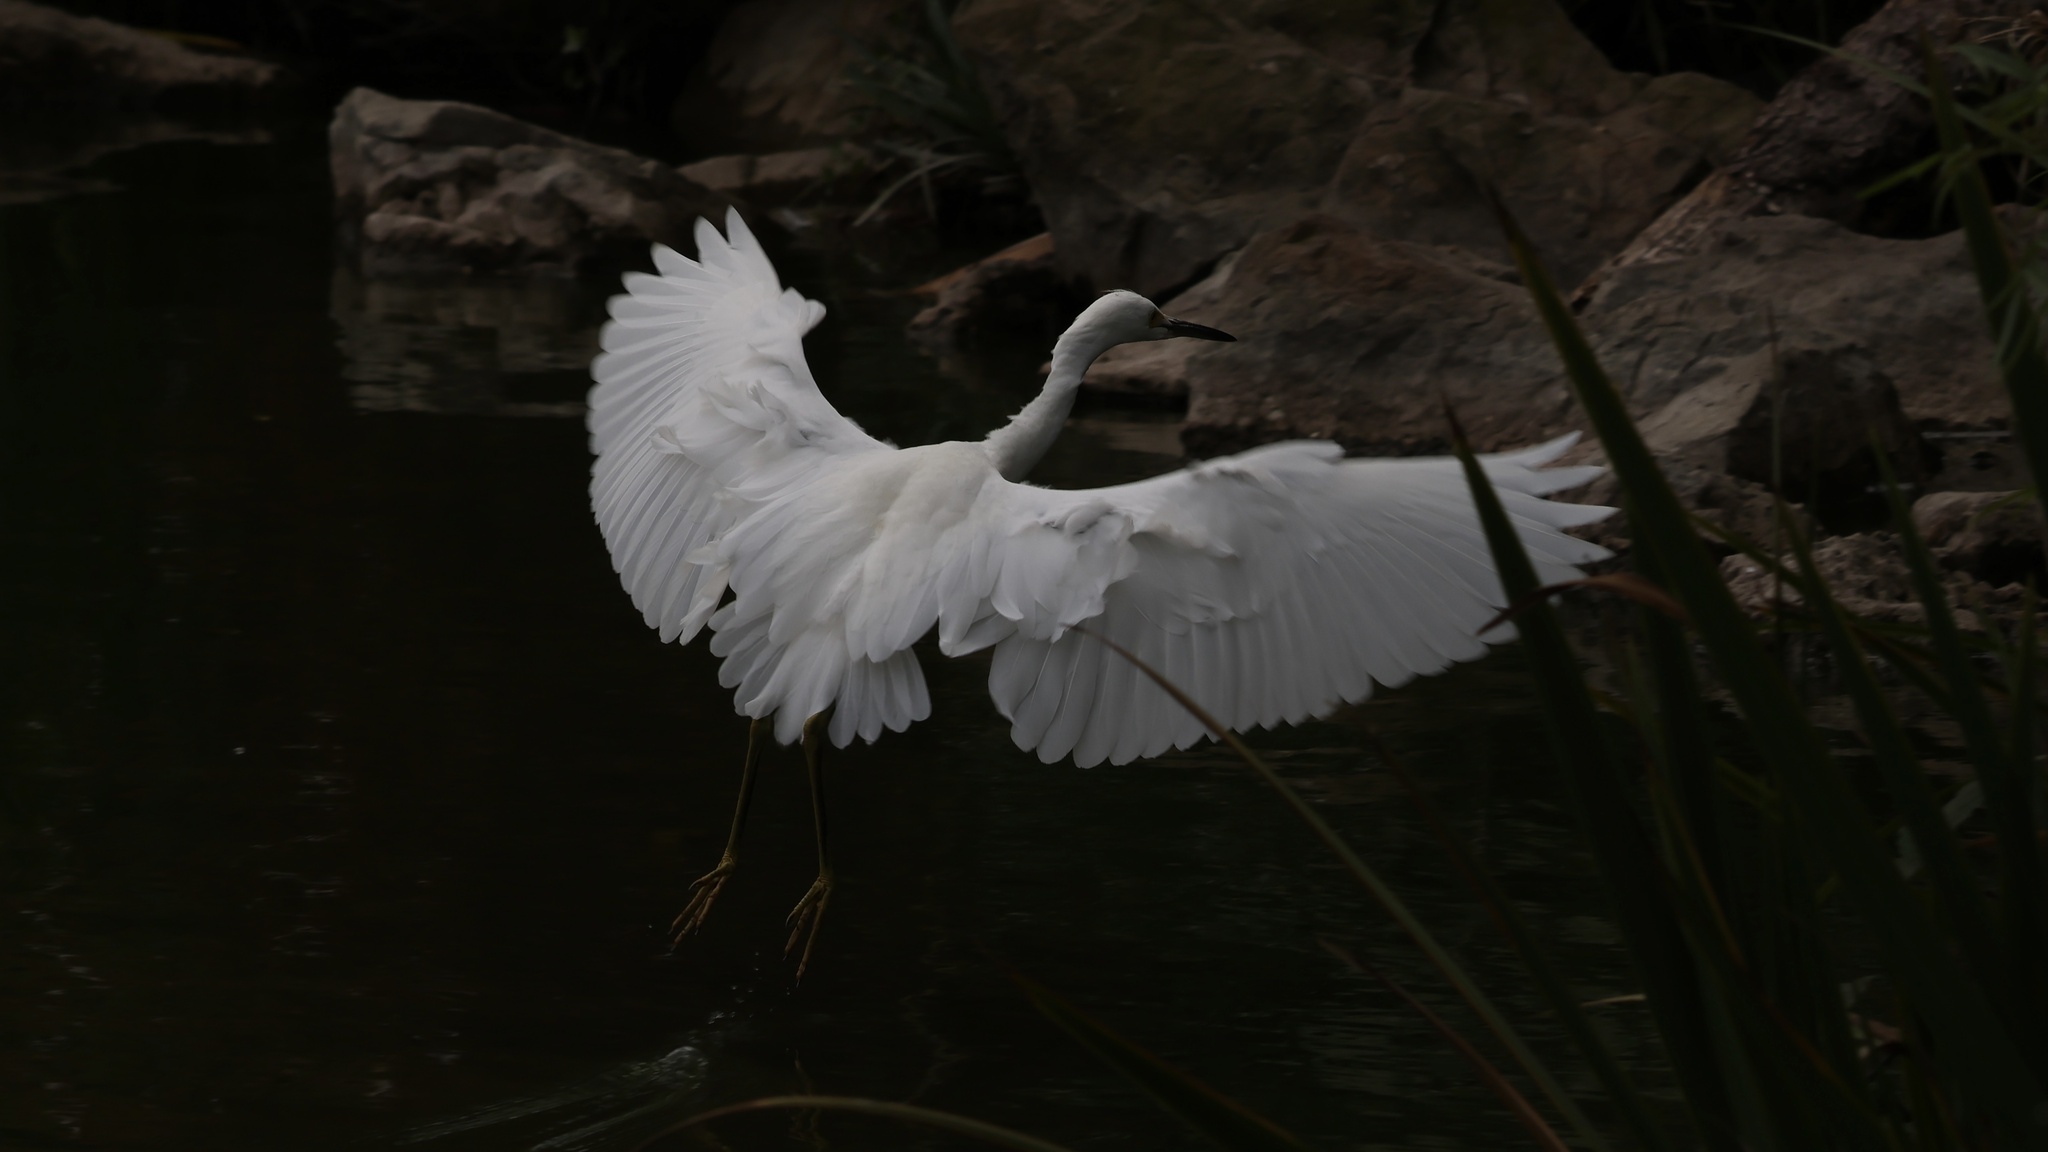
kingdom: Animalia
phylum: Chordata
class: Aves
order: Pelecaniformes
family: Ardeidae
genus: Egretta
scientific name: Egretta thula
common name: Snowy egret
